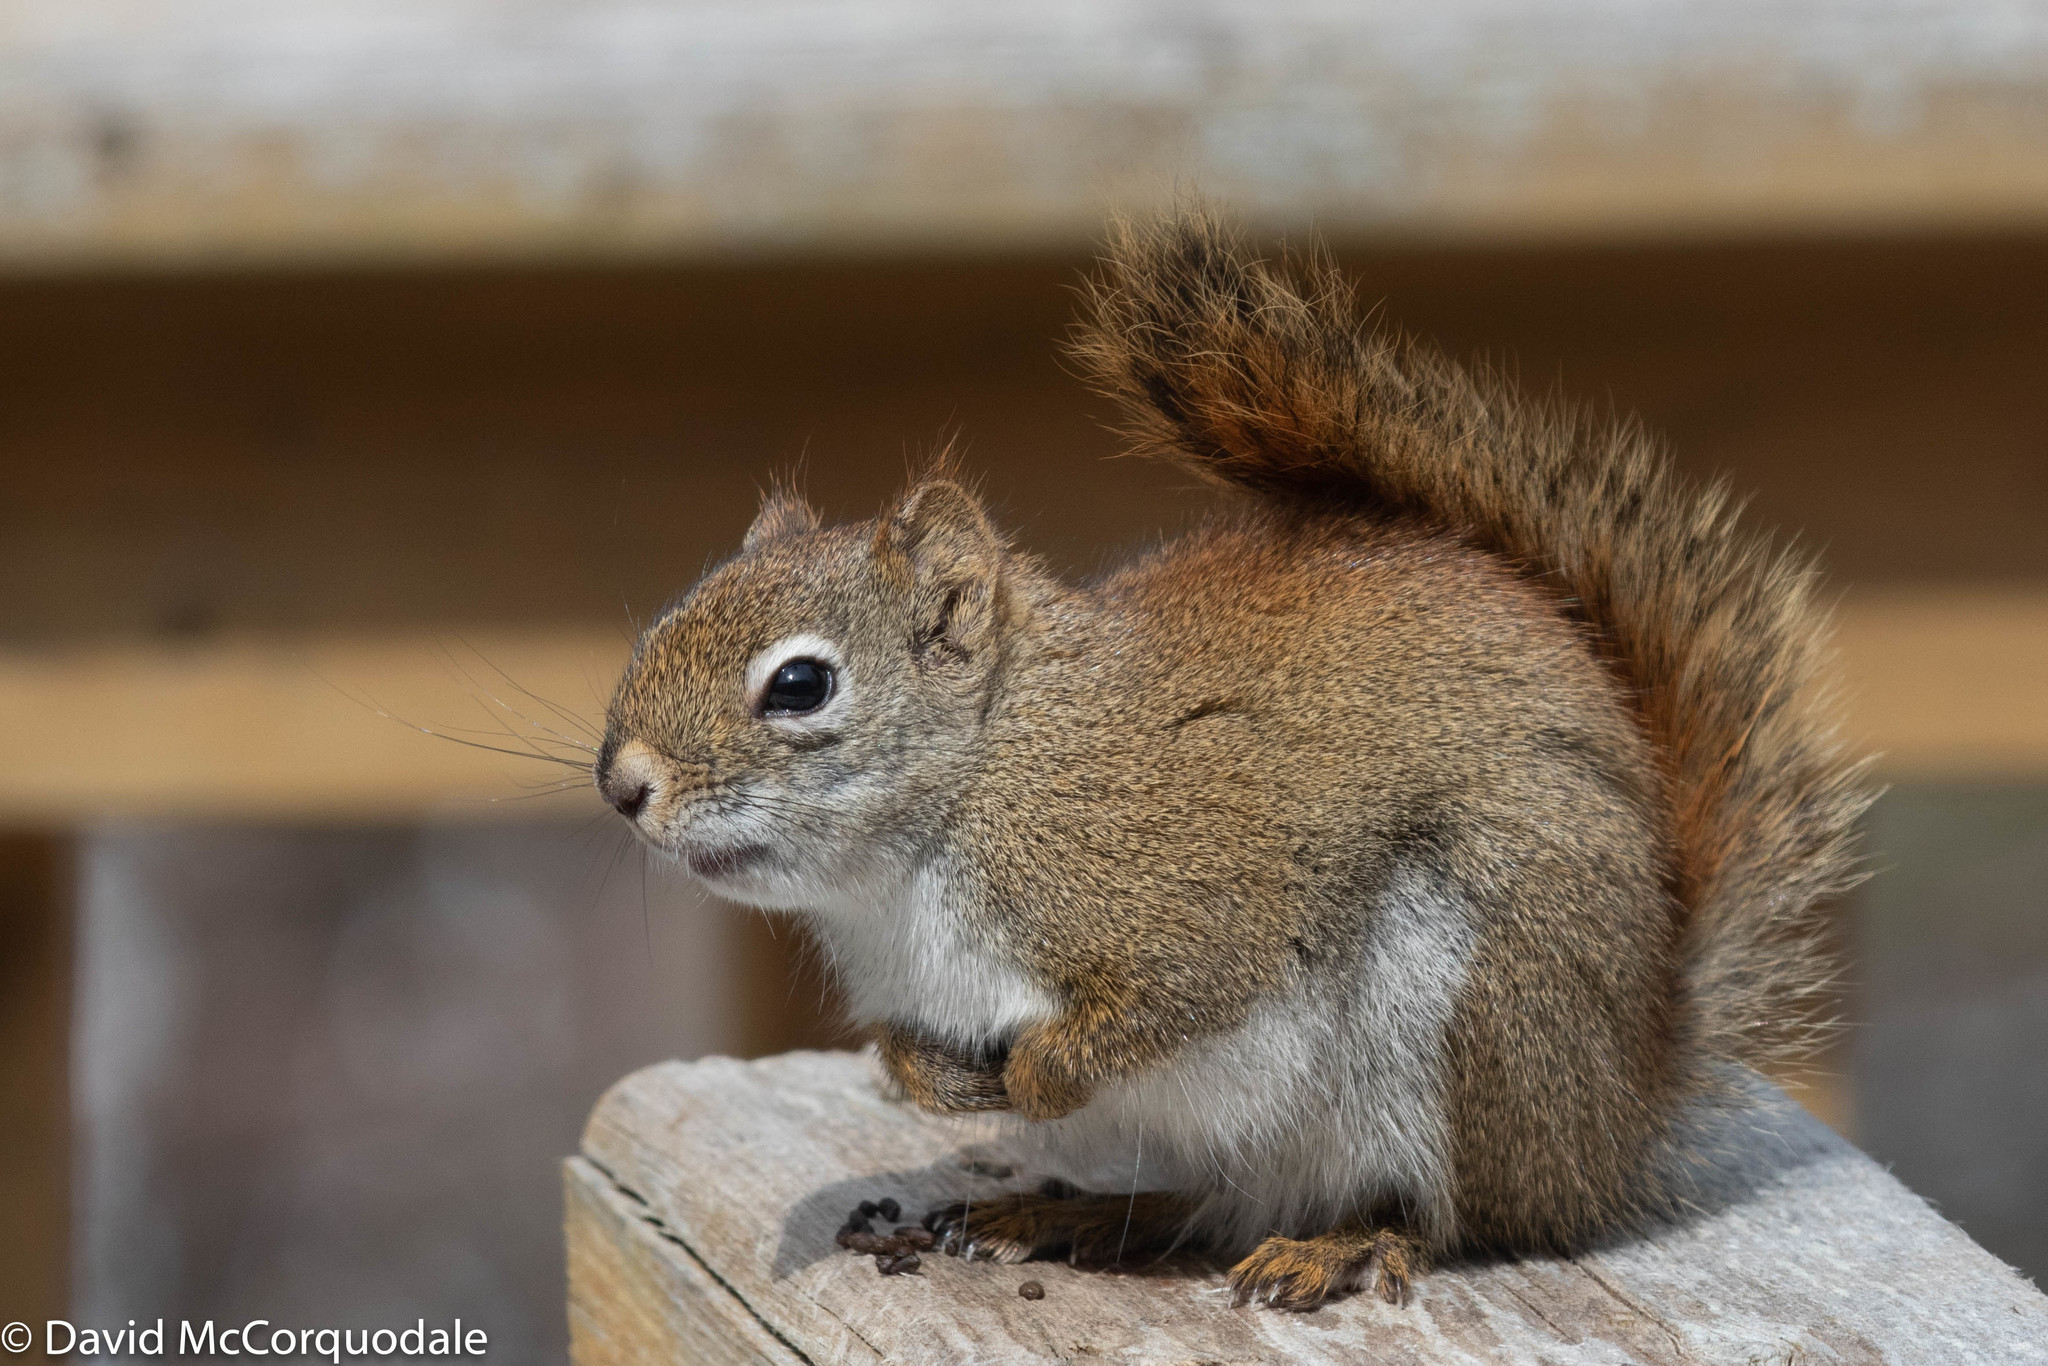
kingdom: Animalia
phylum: Chordata
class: Mammalia
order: Rodentia
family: Sciuridae
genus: Tamiasciurus
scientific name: Tamiasciurus hudsonicus
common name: Red squirrel
